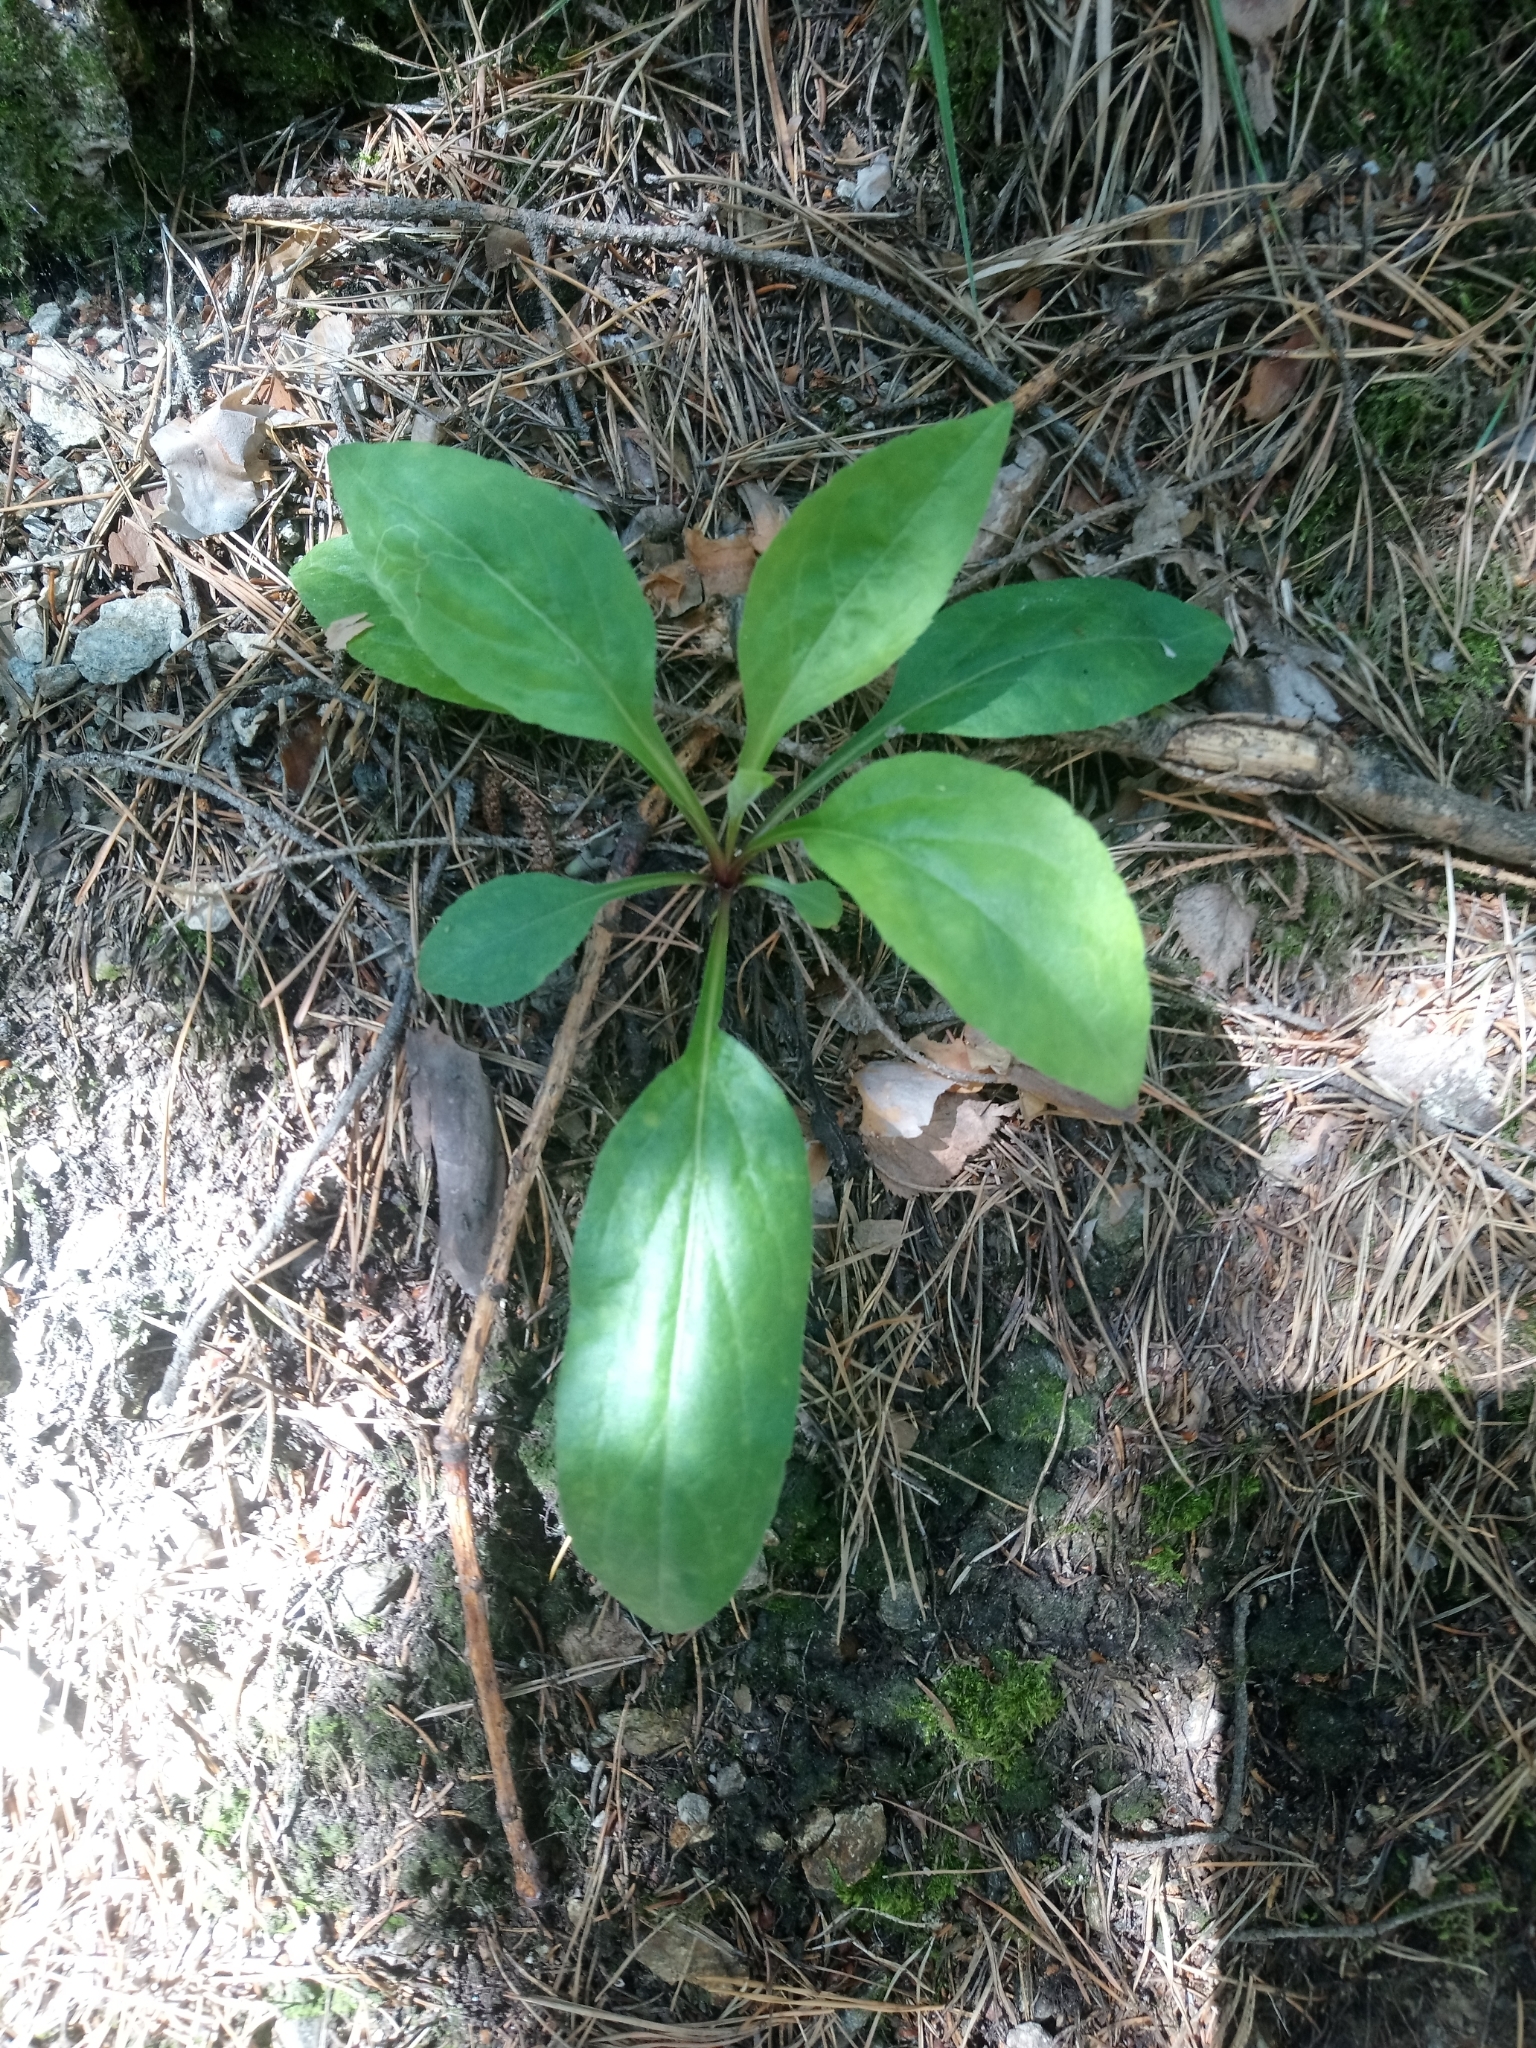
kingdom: Plantae
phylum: Tracheophyta
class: Magnoliopsida
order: Asterales
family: Asteraceae
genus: Solidago
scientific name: Solidago virgaurea
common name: Goldenrod
